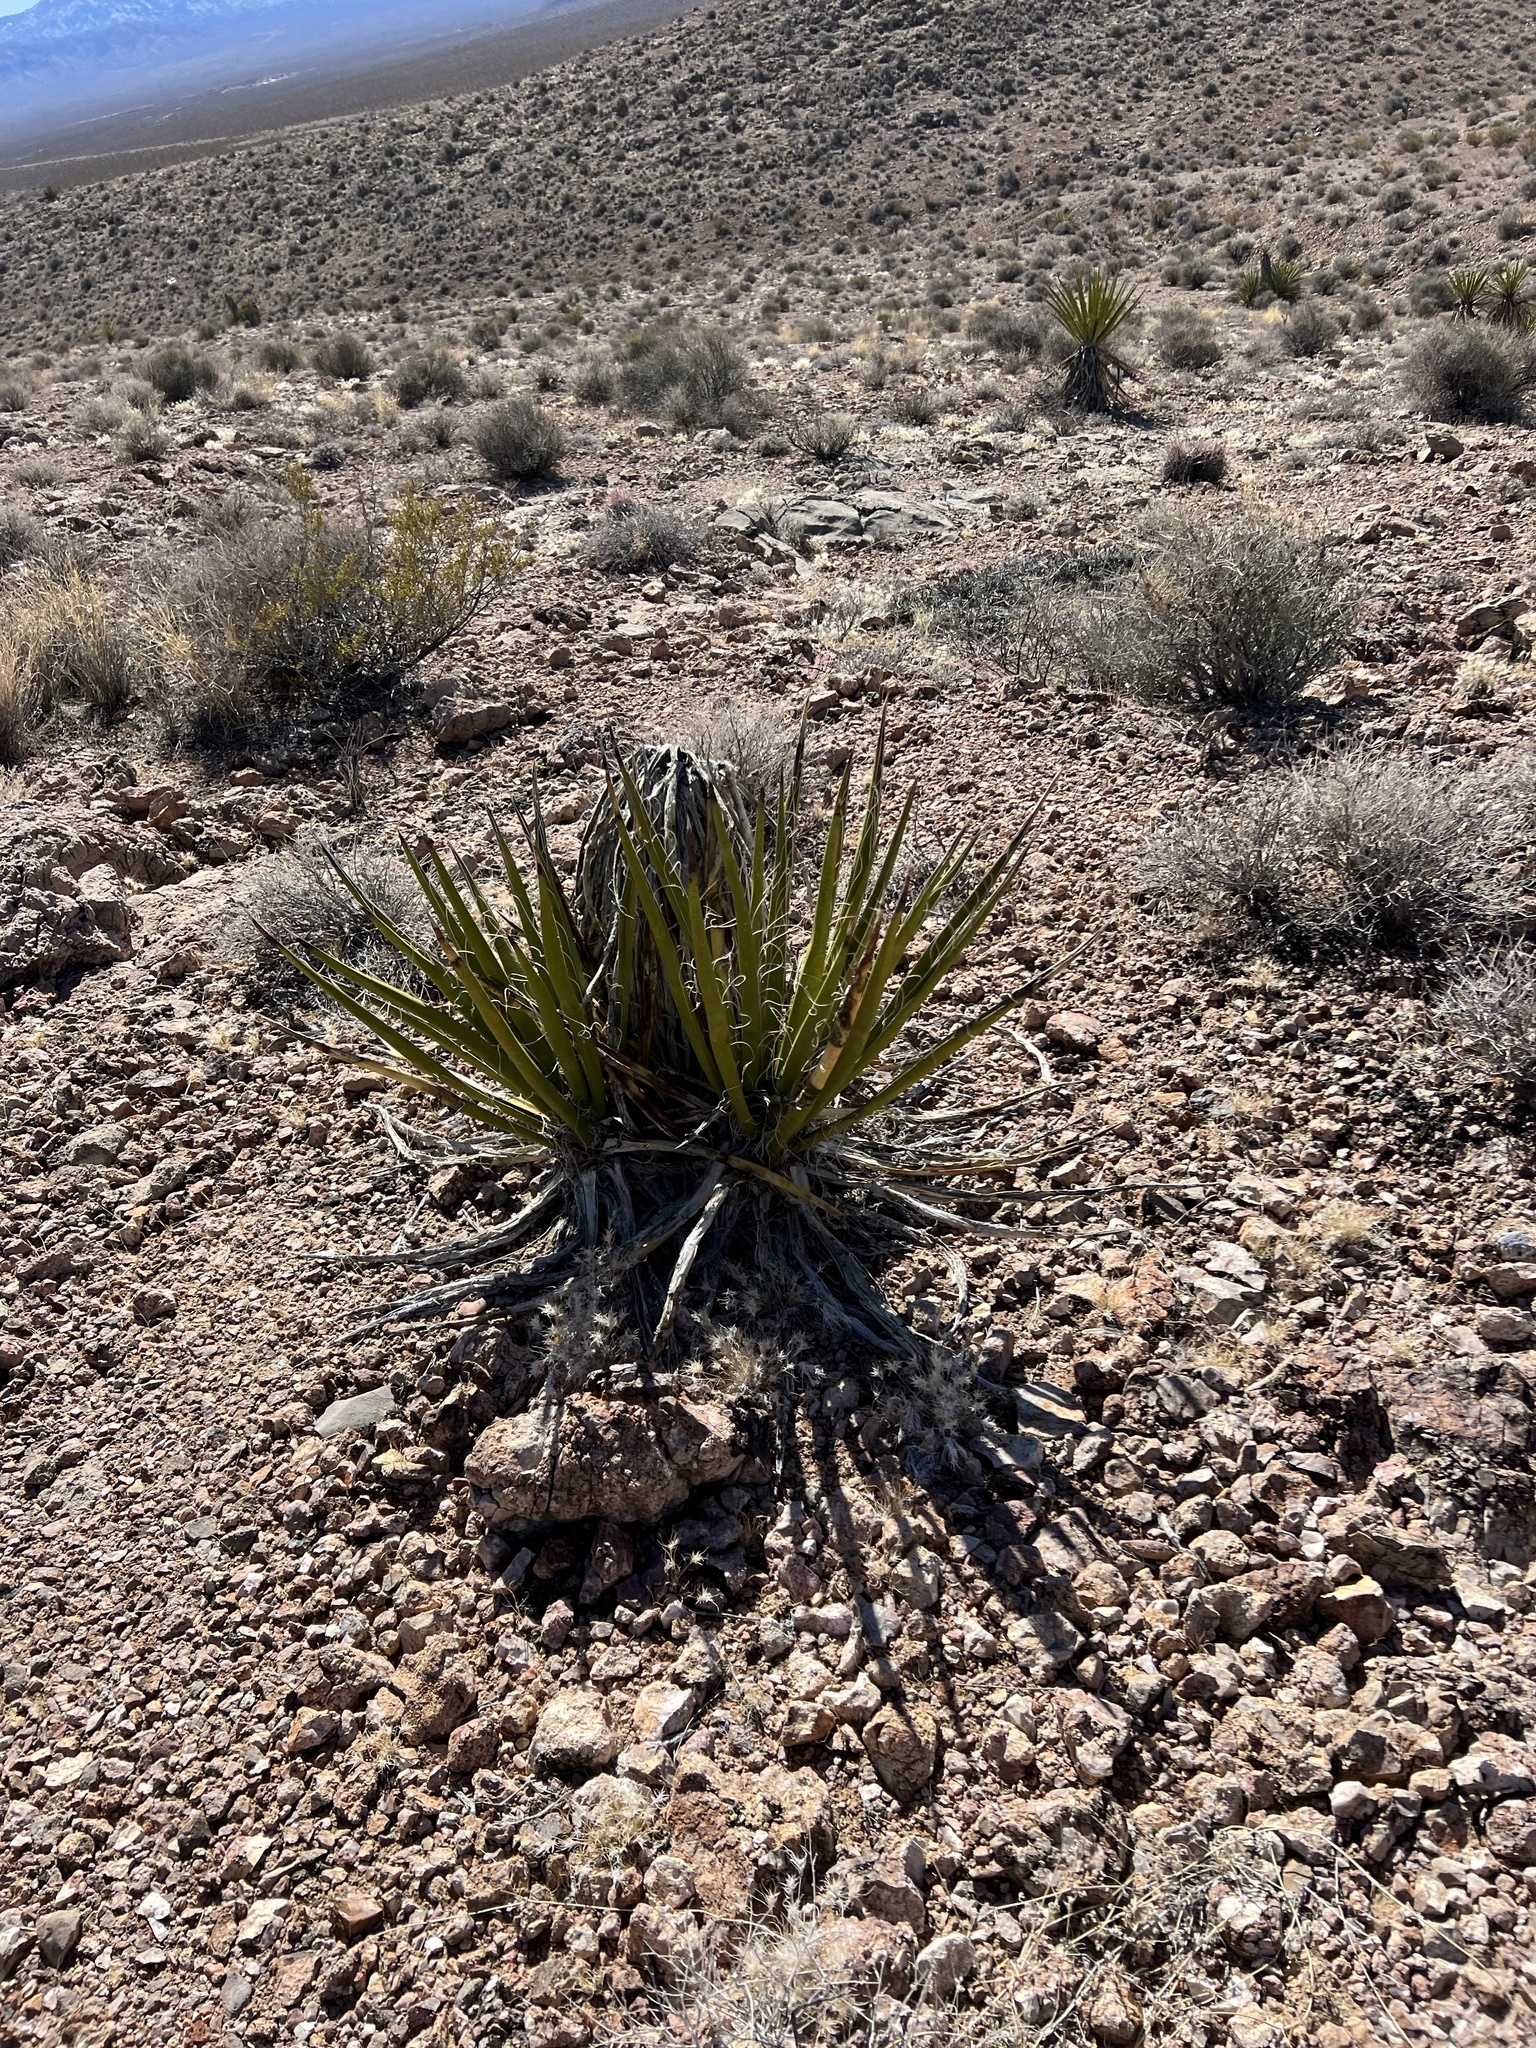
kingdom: Plantae
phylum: Tracheophyta
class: Liliopsida
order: Asparagales
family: Asparagaceae
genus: Yucca
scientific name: Yucca schidigera
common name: Mojave yucca
